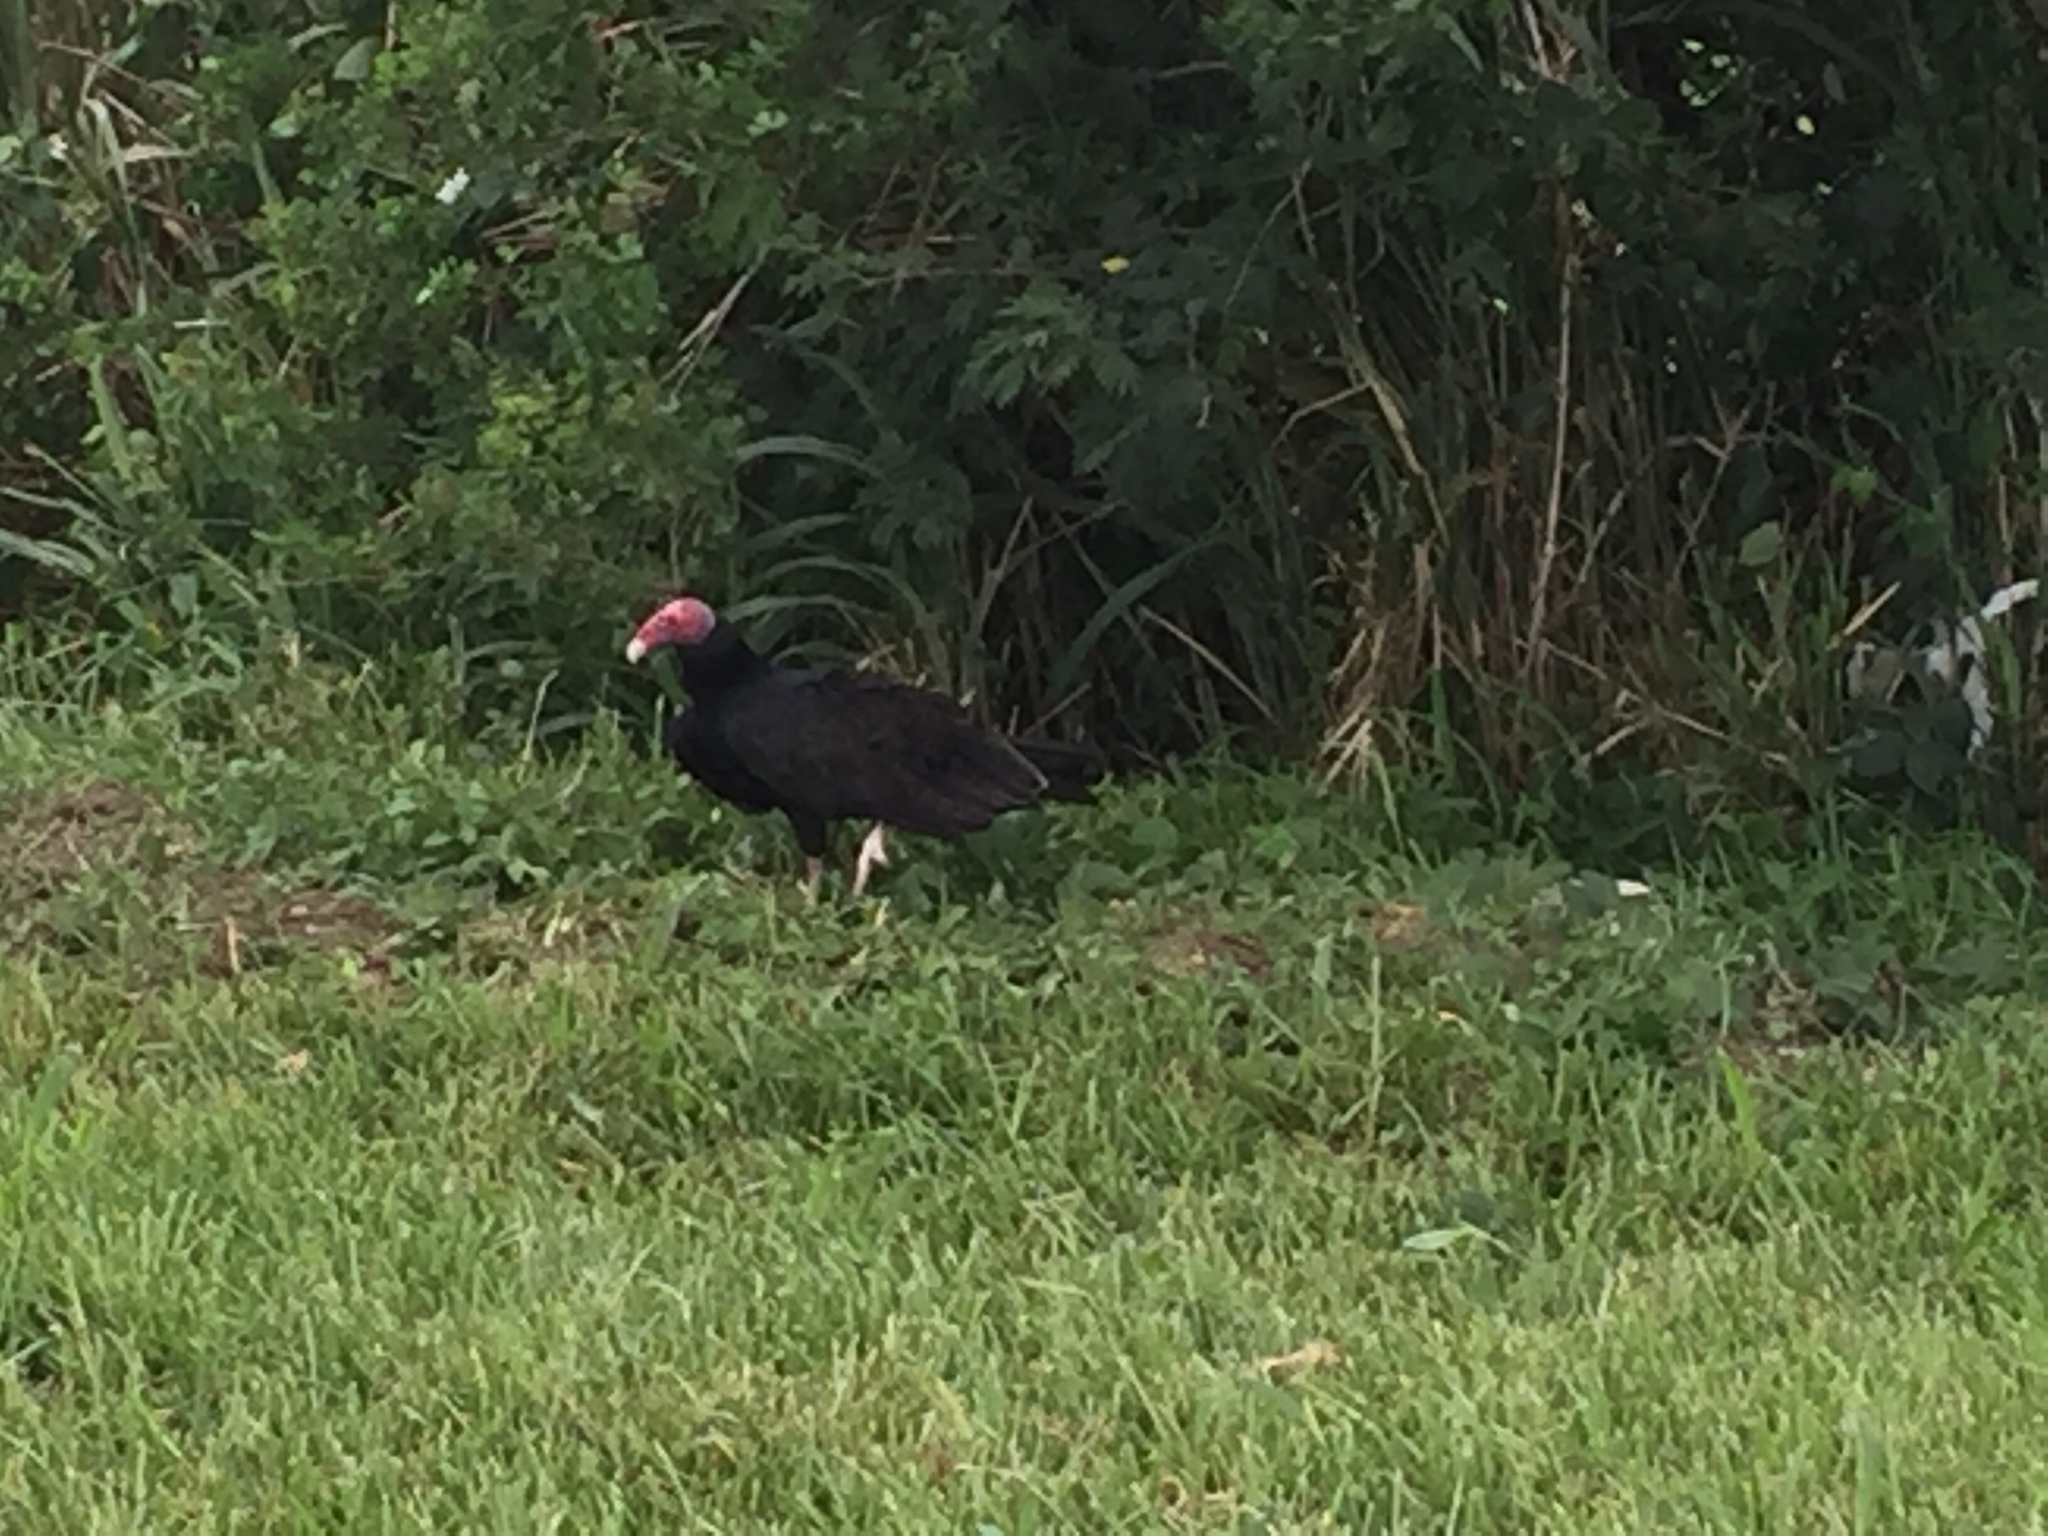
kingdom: Animalia
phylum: Chordata
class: Aves
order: Accipitriformes
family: Cathartidae
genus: Cathartes
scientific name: Cathartes aura
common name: Turkey vulture
